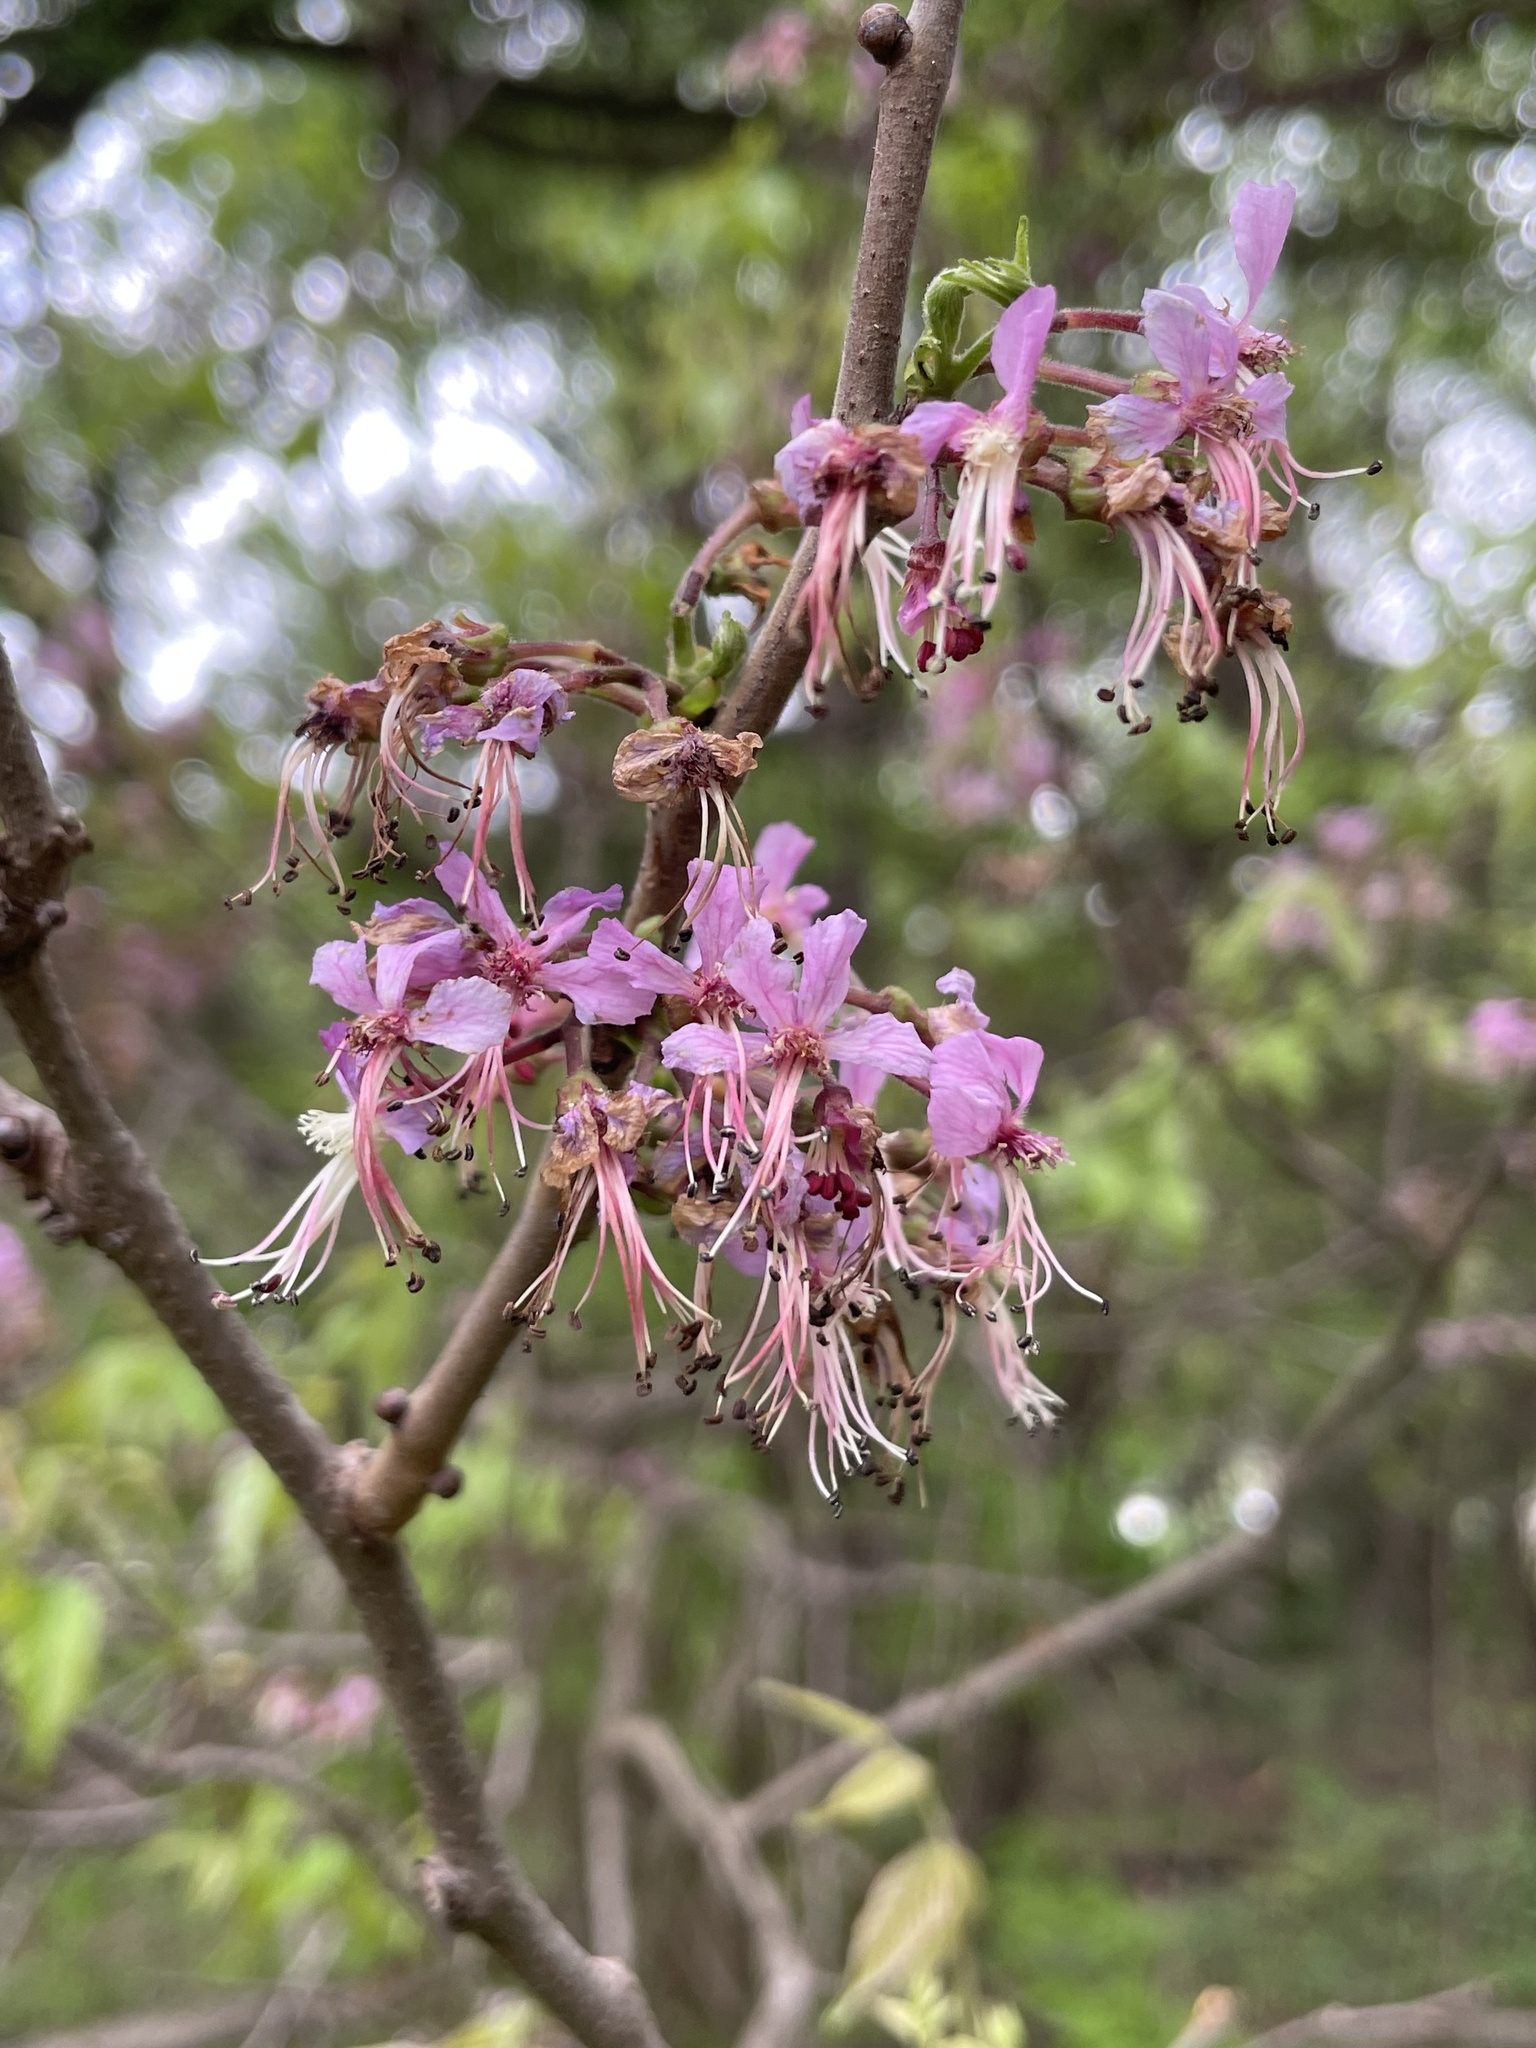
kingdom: Plantae
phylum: Tracheophyta
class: Magnoliopsida
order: Sapindales
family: Sapindaceae
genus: Ungnadia
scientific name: Ungnadia speciosa
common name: Texas-buckeye
